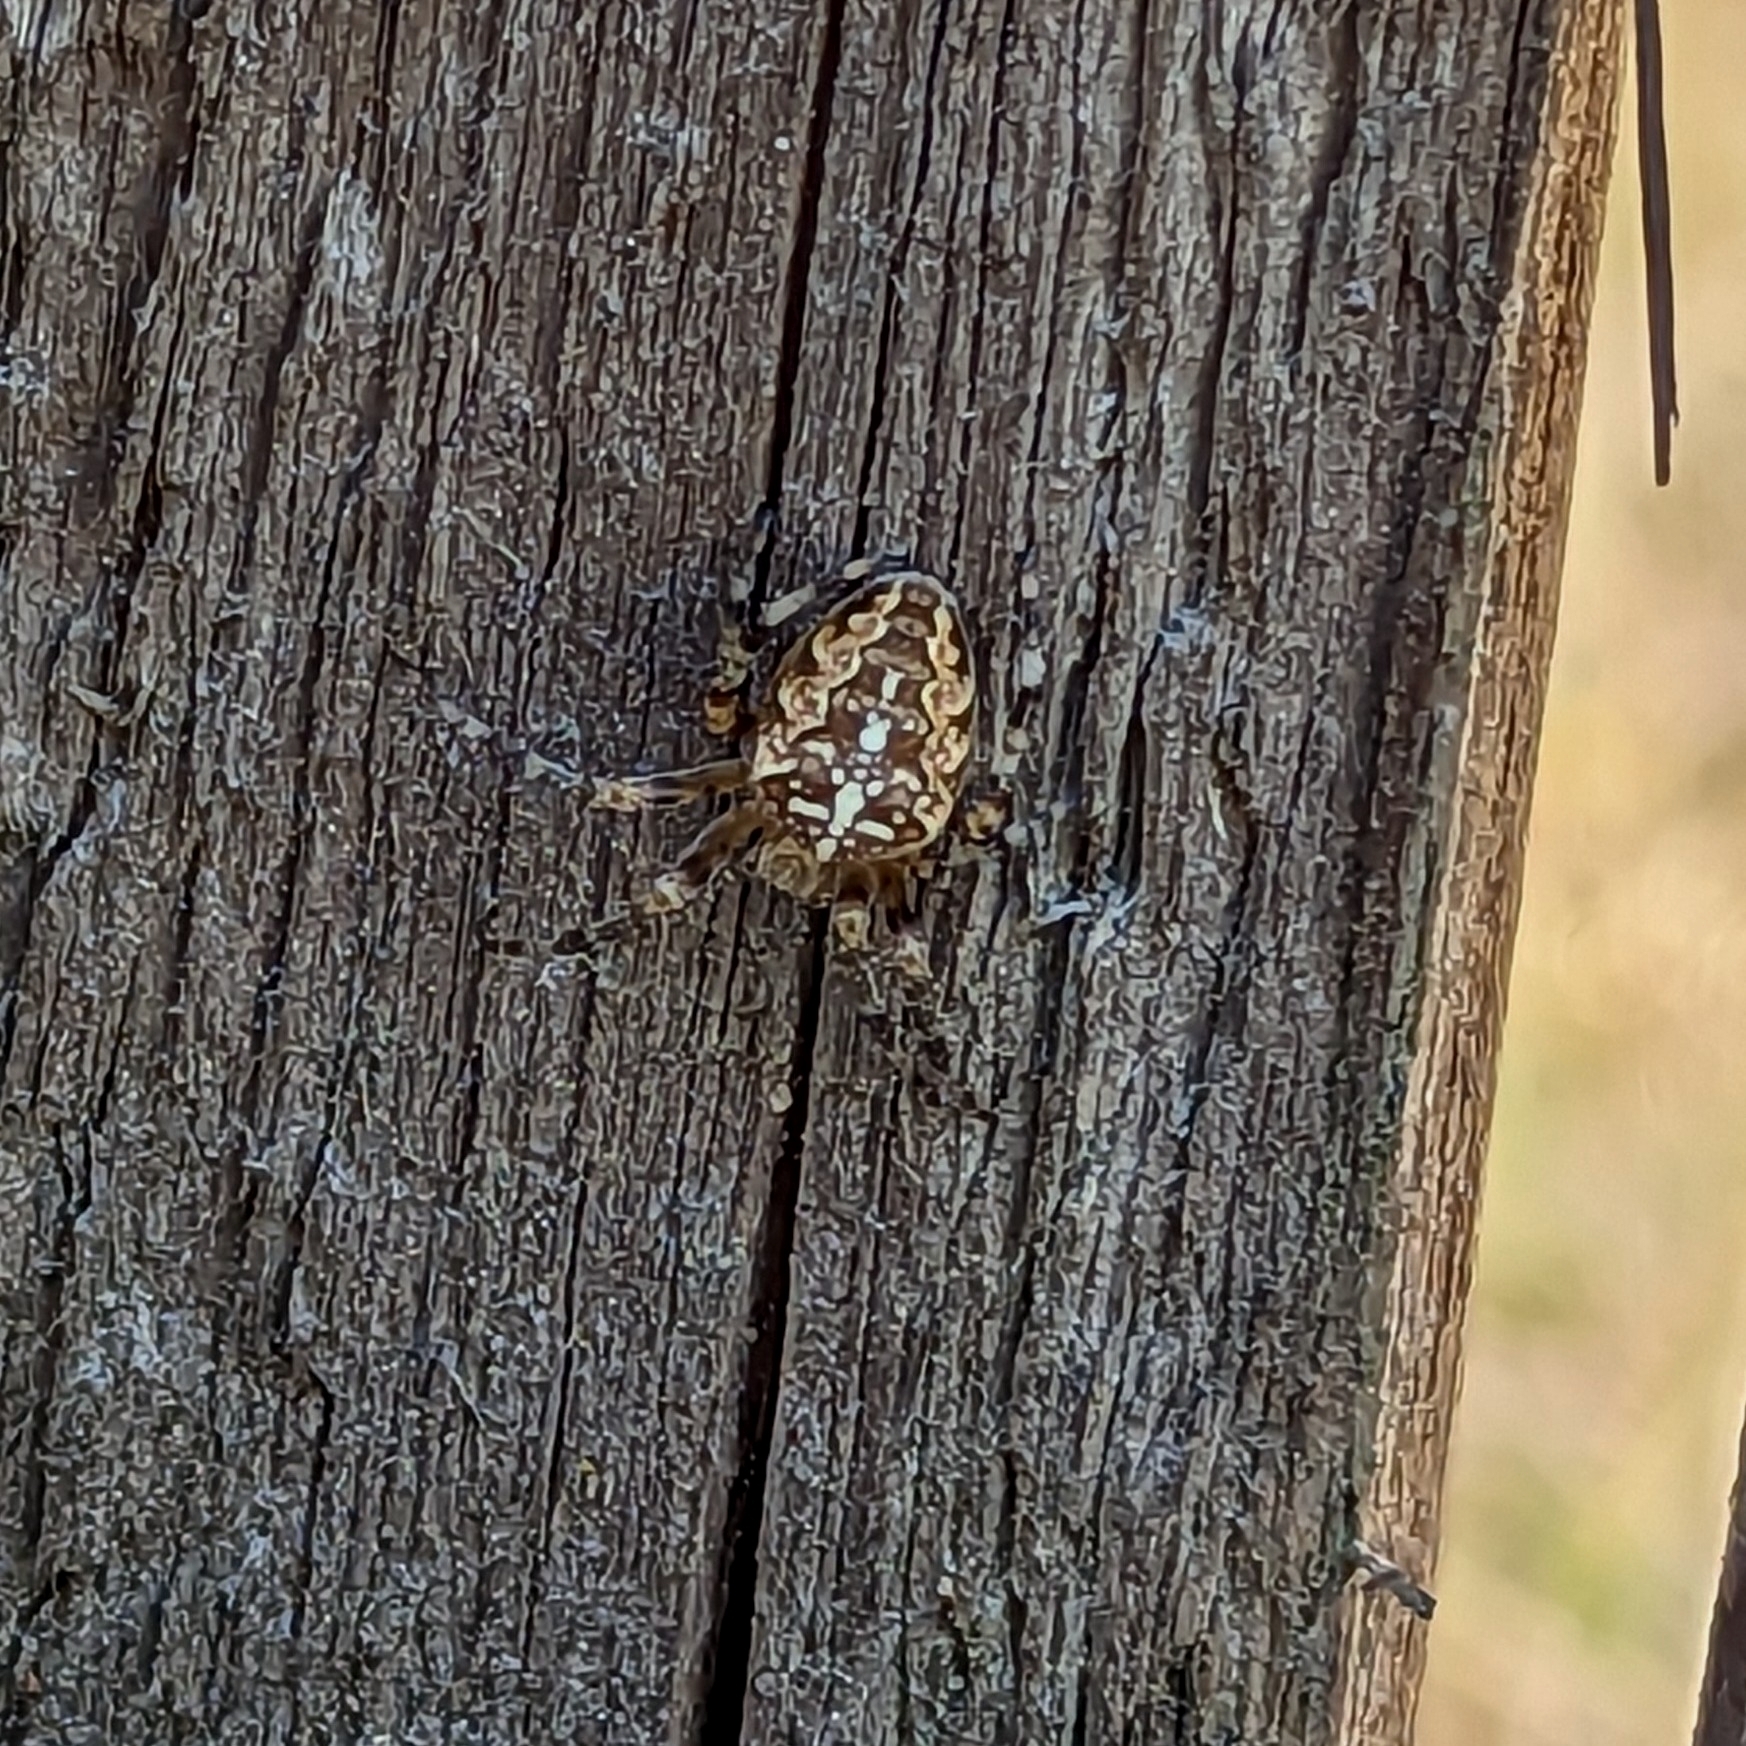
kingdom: Animalia
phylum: Arthropoda
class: Arachnida
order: Araneae
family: Araneidae
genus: Araneus
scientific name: Araneus diadematus
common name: Cross orbweaver
